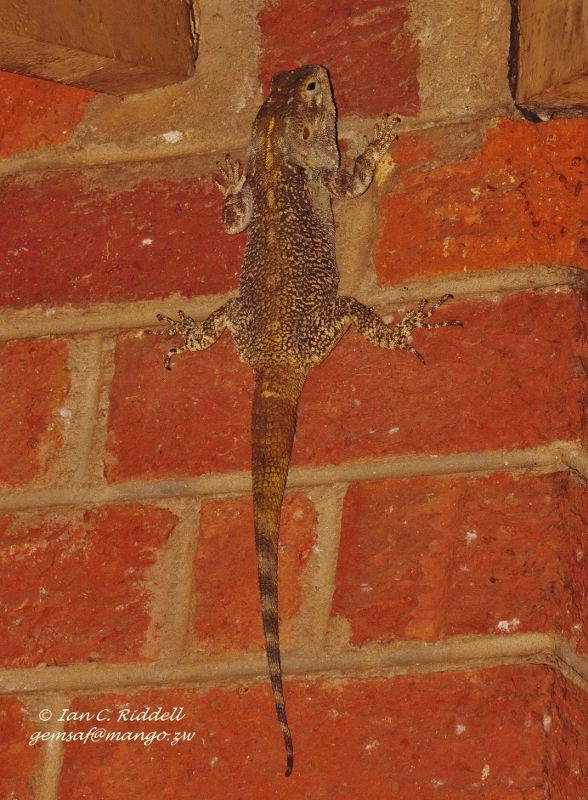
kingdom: Animalia
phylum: Chordata
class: Squamata
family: Agamidae
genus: Acanthocercus
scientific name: Acanthocercus
